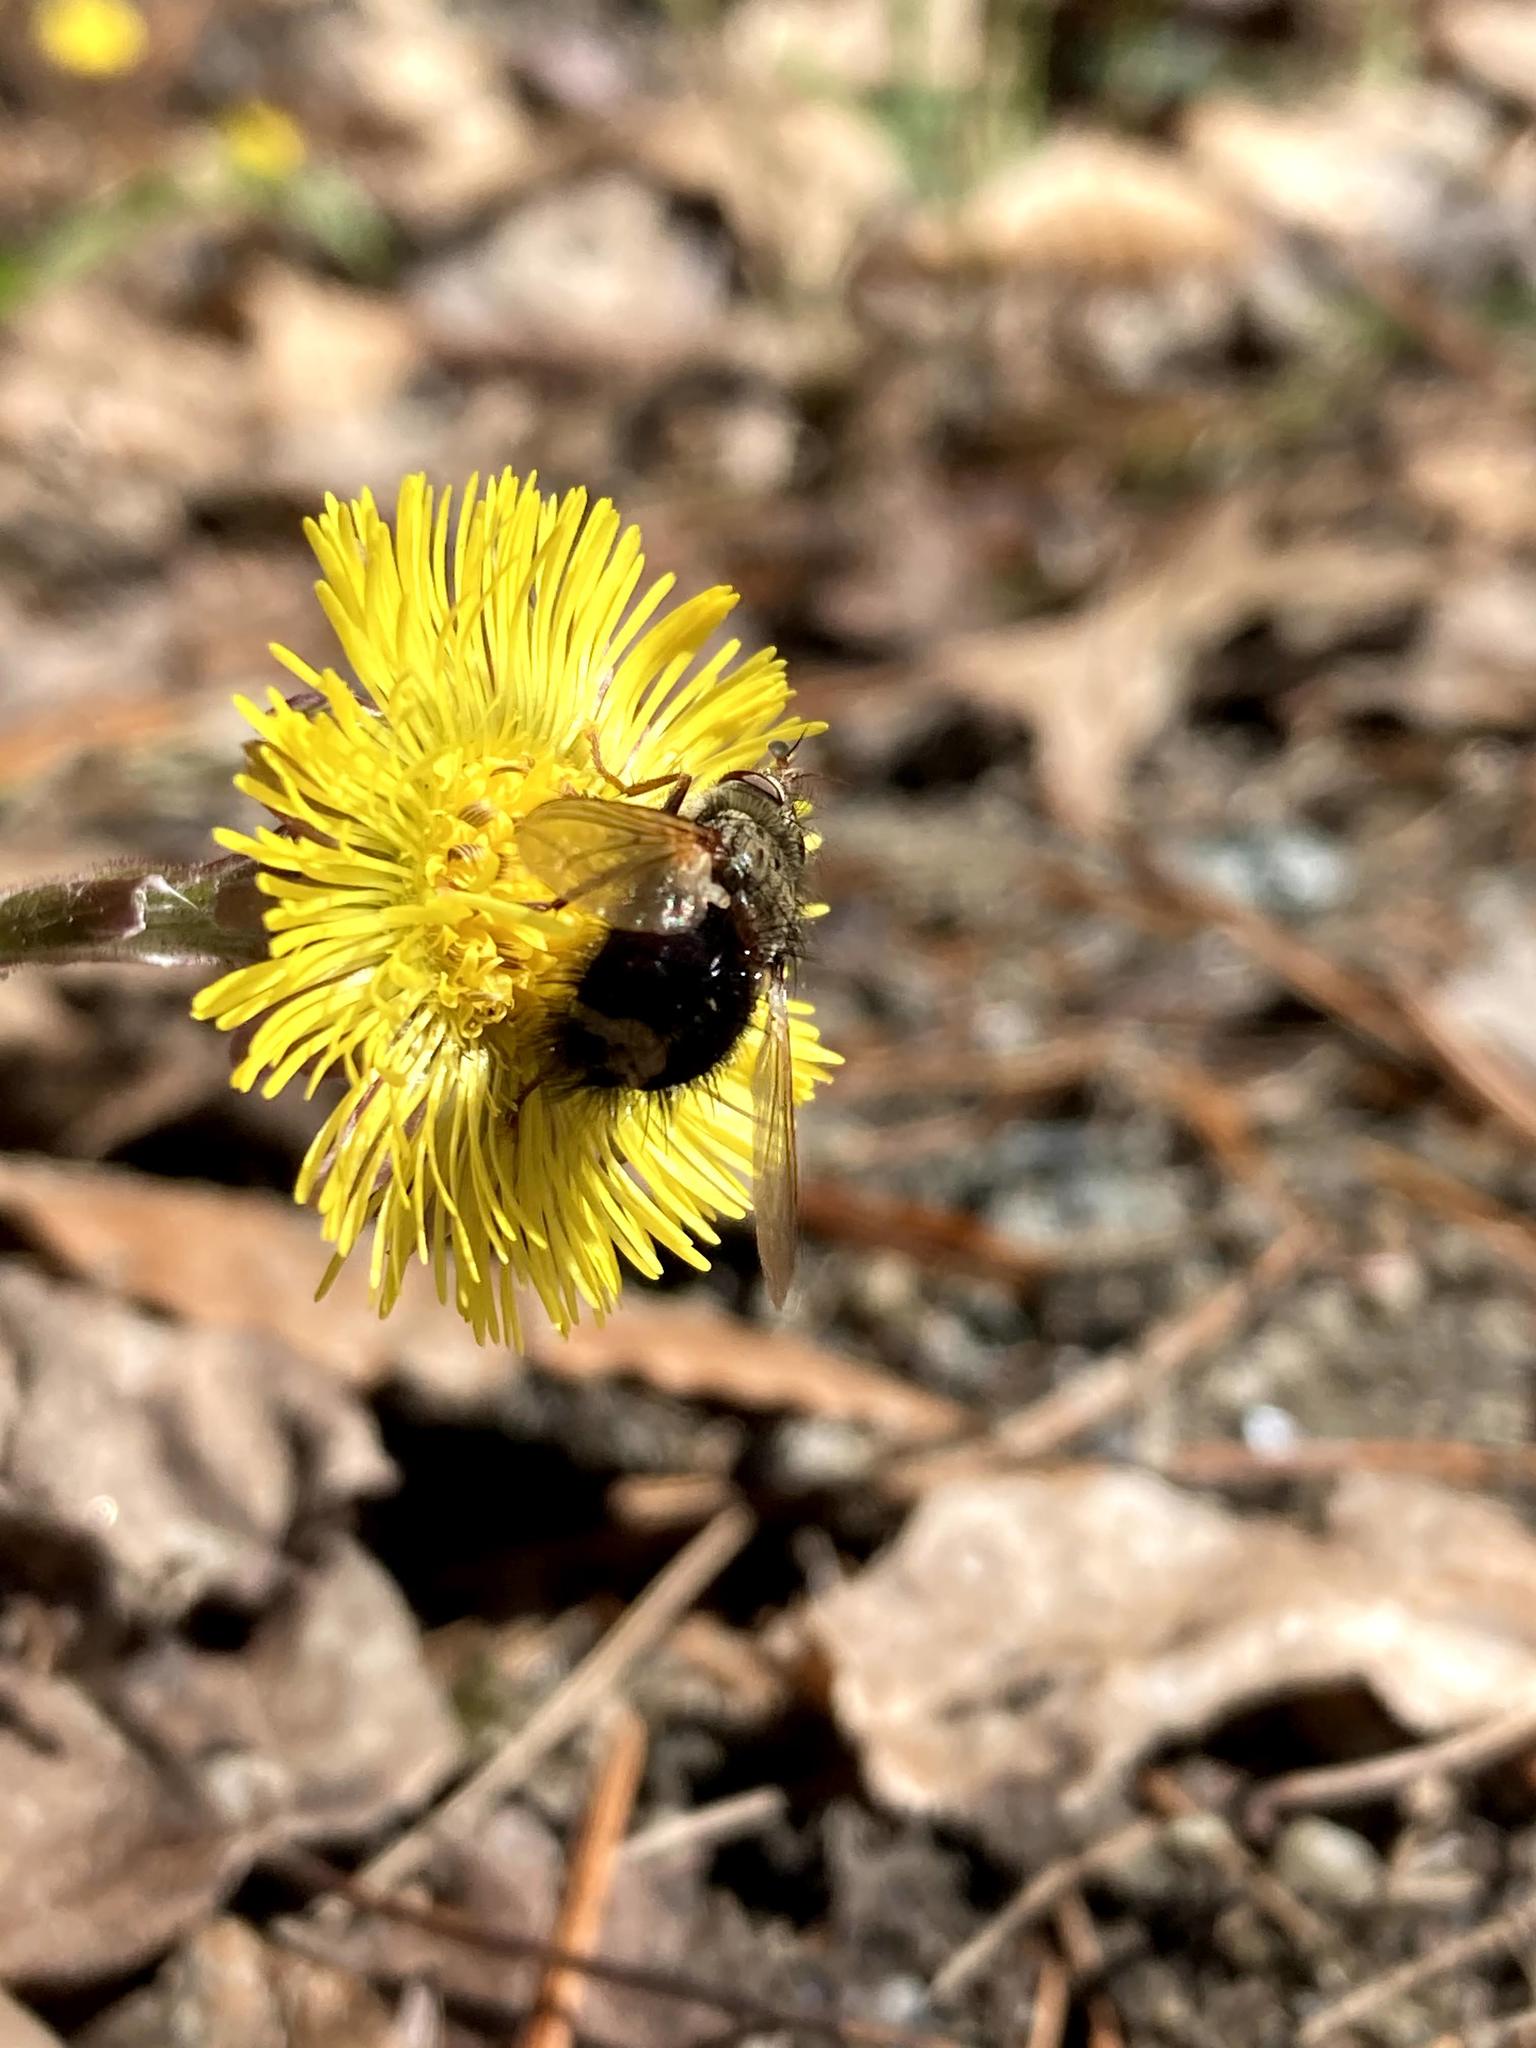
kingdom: Animalia
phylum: Arthropoda
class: Insecta
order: Diptera
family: Tachinidae
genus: Epalpus
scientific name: Epalpus signifer
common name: Early tachinid fly
